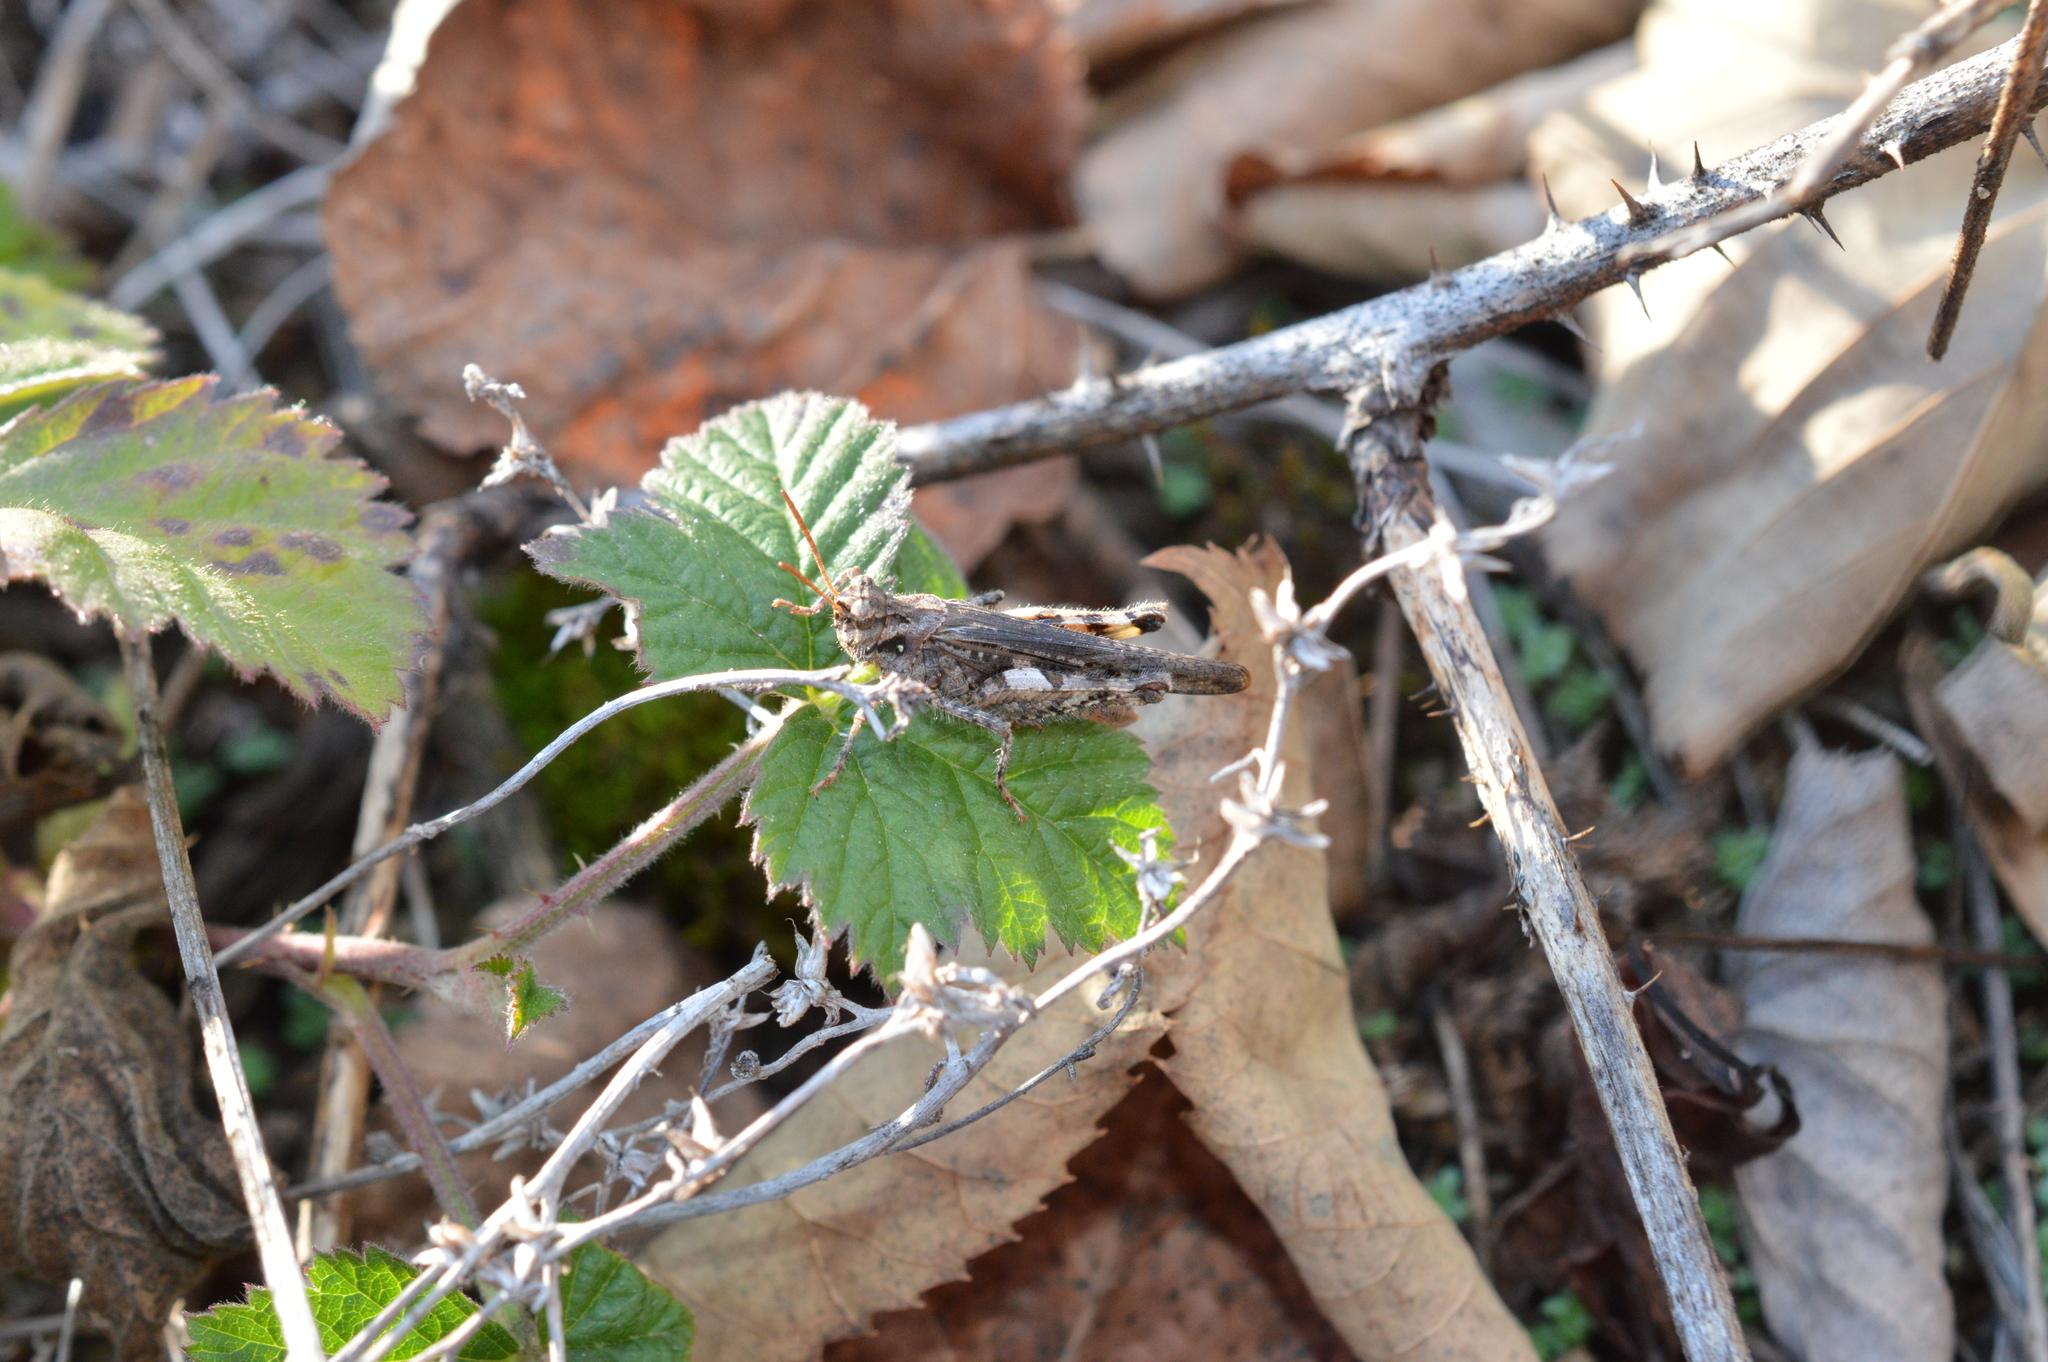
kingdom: Animalia
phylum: Arthropoda
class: Insecta
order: Orthoptera
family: Acrididae
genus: Acrotylus
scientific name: Acrotylus insubricus
